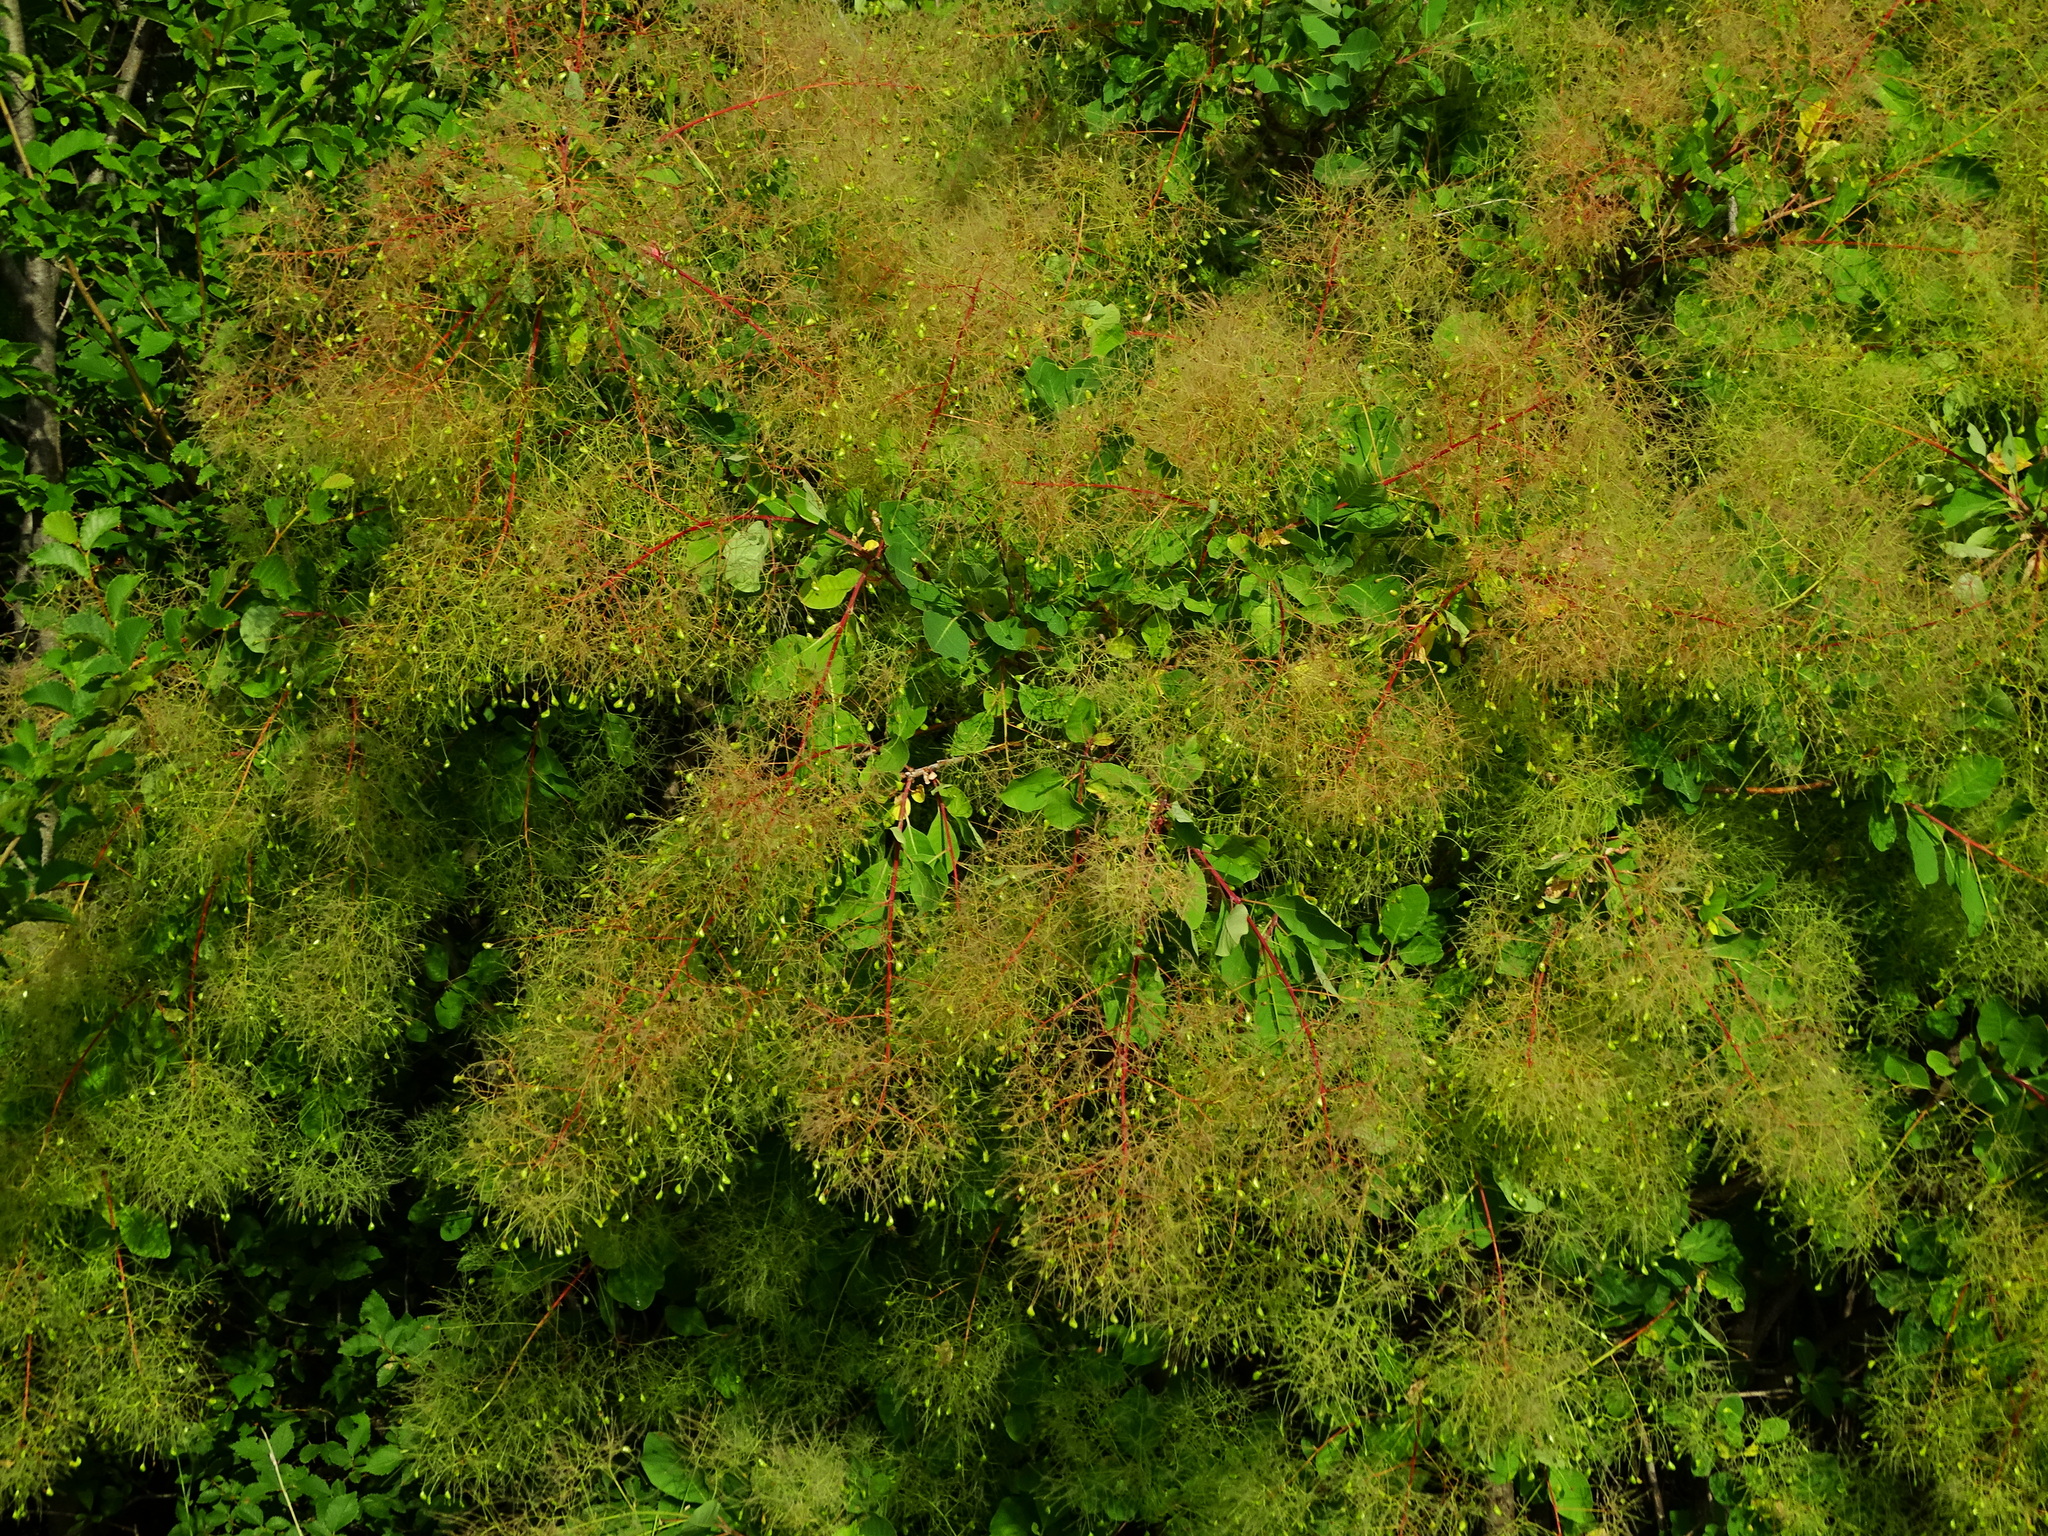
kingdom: Plantae
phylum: Tracheophyta
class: Magnoliopsida
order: Sapindales
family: Anacardiaceae
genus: Cotinus
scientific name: Cotinus coggygria
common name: Smoke-tree
